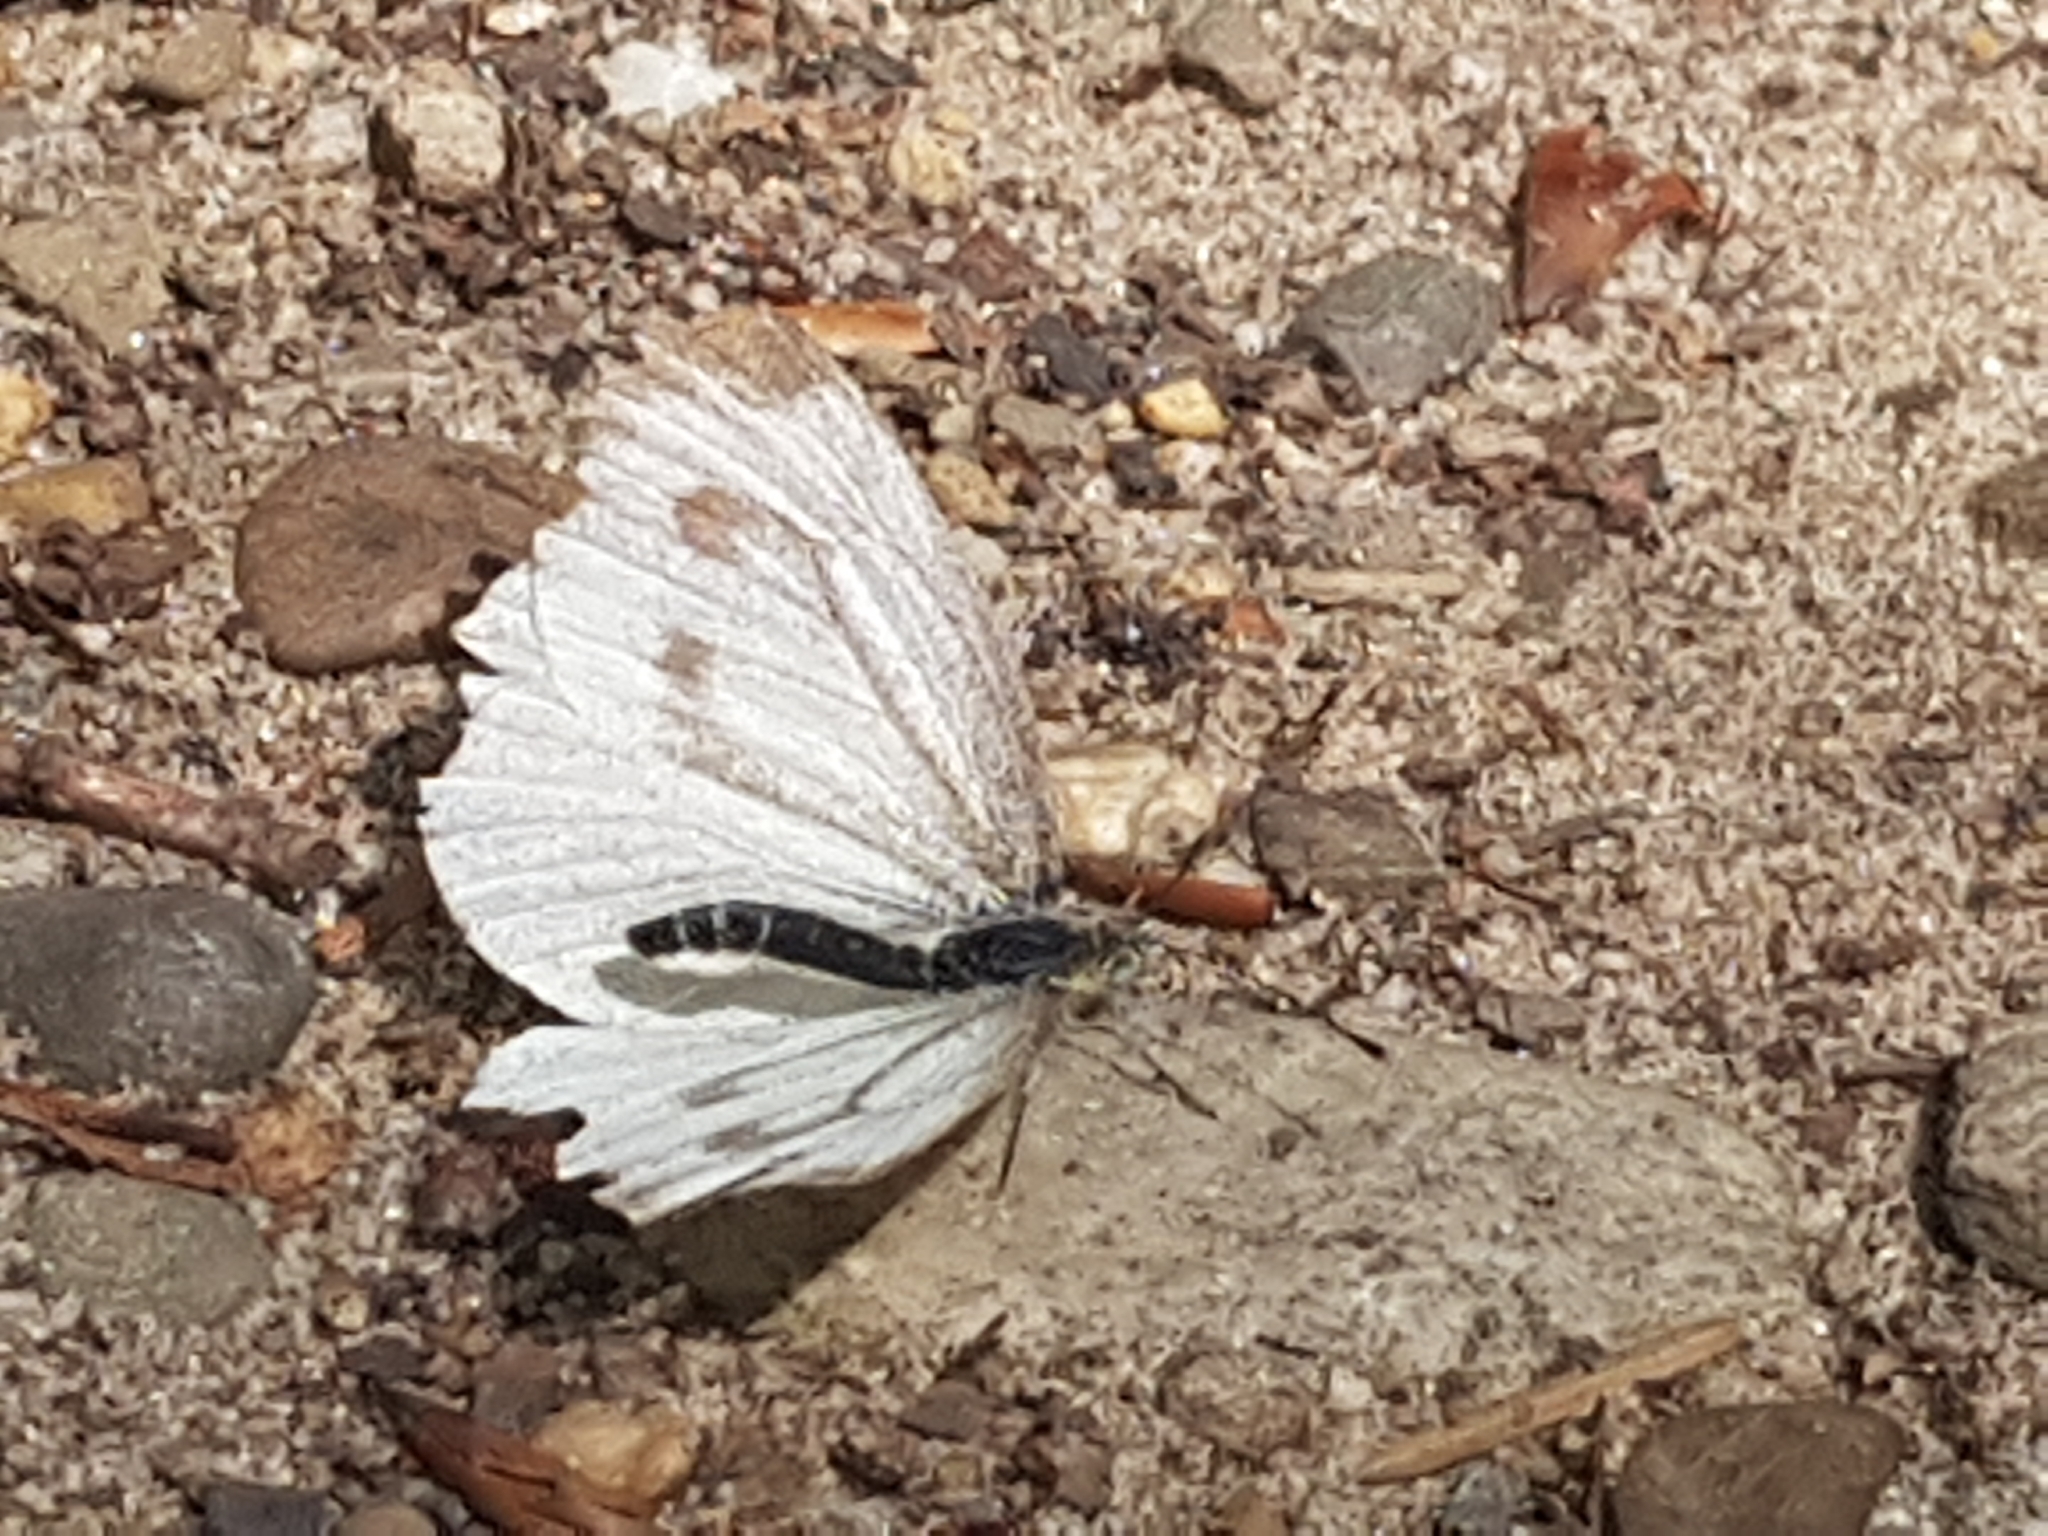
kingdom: Animalia
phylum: Arthropoda
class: Insecta
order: Lepidoptera
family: Pieridae
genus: Pieris
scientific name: Pieris napi
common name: Green-veined white
